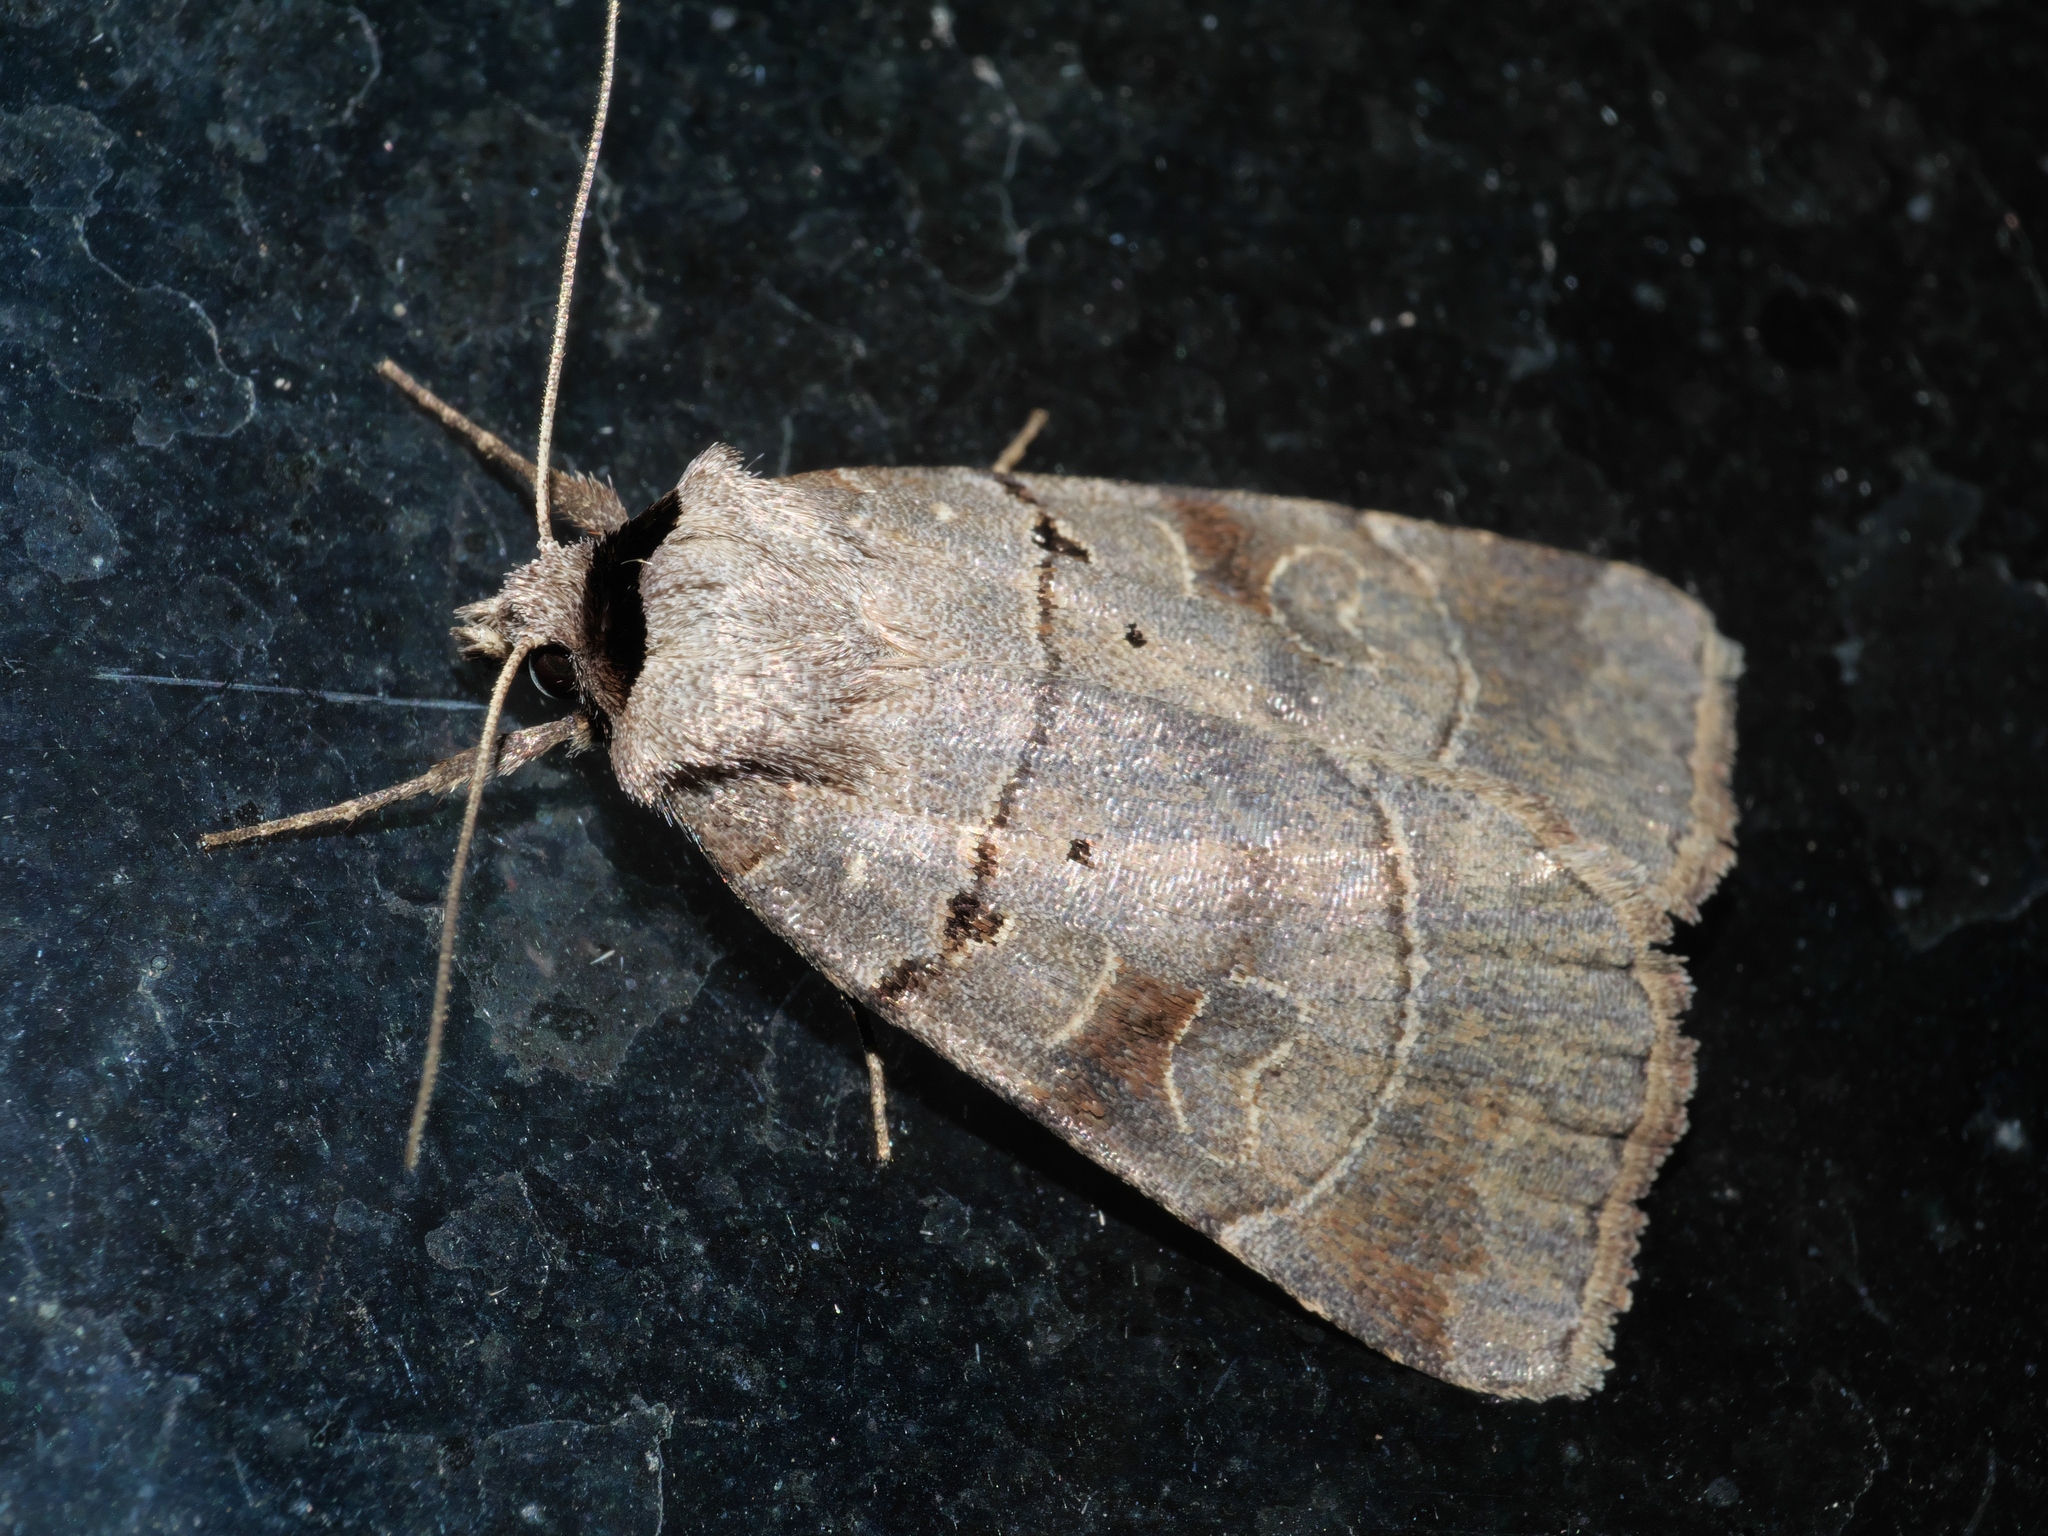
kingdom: Animalia
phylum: Arthropoda
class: Insecta
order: Lepidoptera
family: Noctuidae
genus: Agnorisma
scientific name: Agnorisma badinodis
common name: Pale-banded dart
